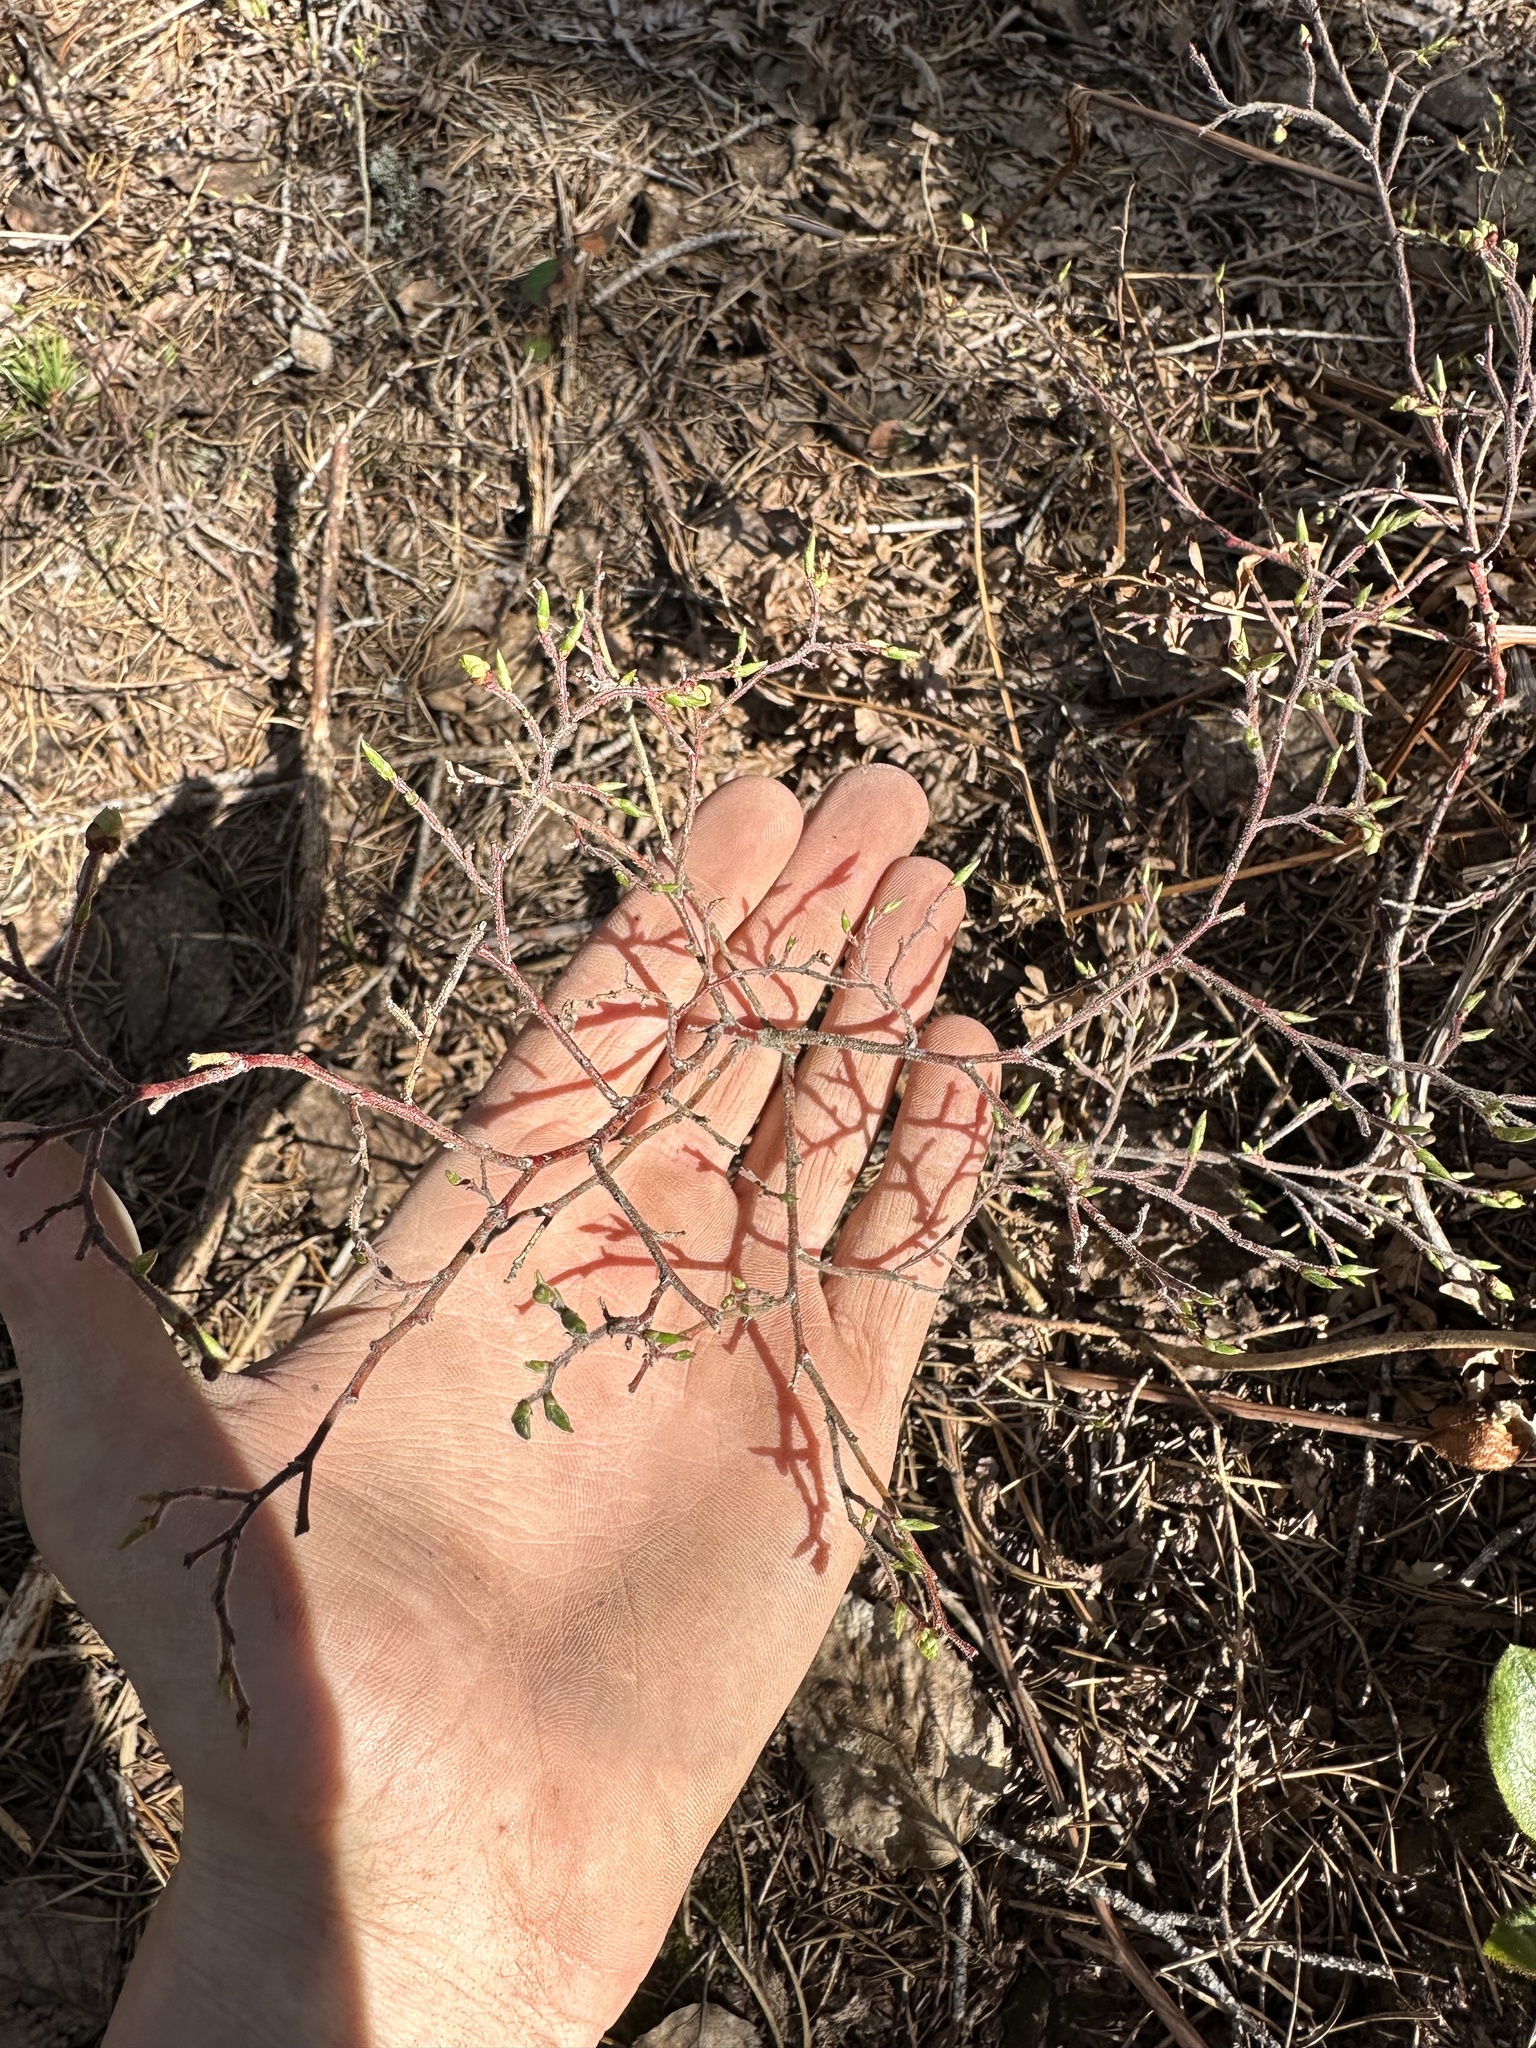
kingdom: Plantae
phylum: Tracheophyta
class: Magnoliopsida
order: Ericales
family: Ericaceae
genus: Vaccinium
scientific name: Vaccinium myrtilloides
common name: Canada blueberry
